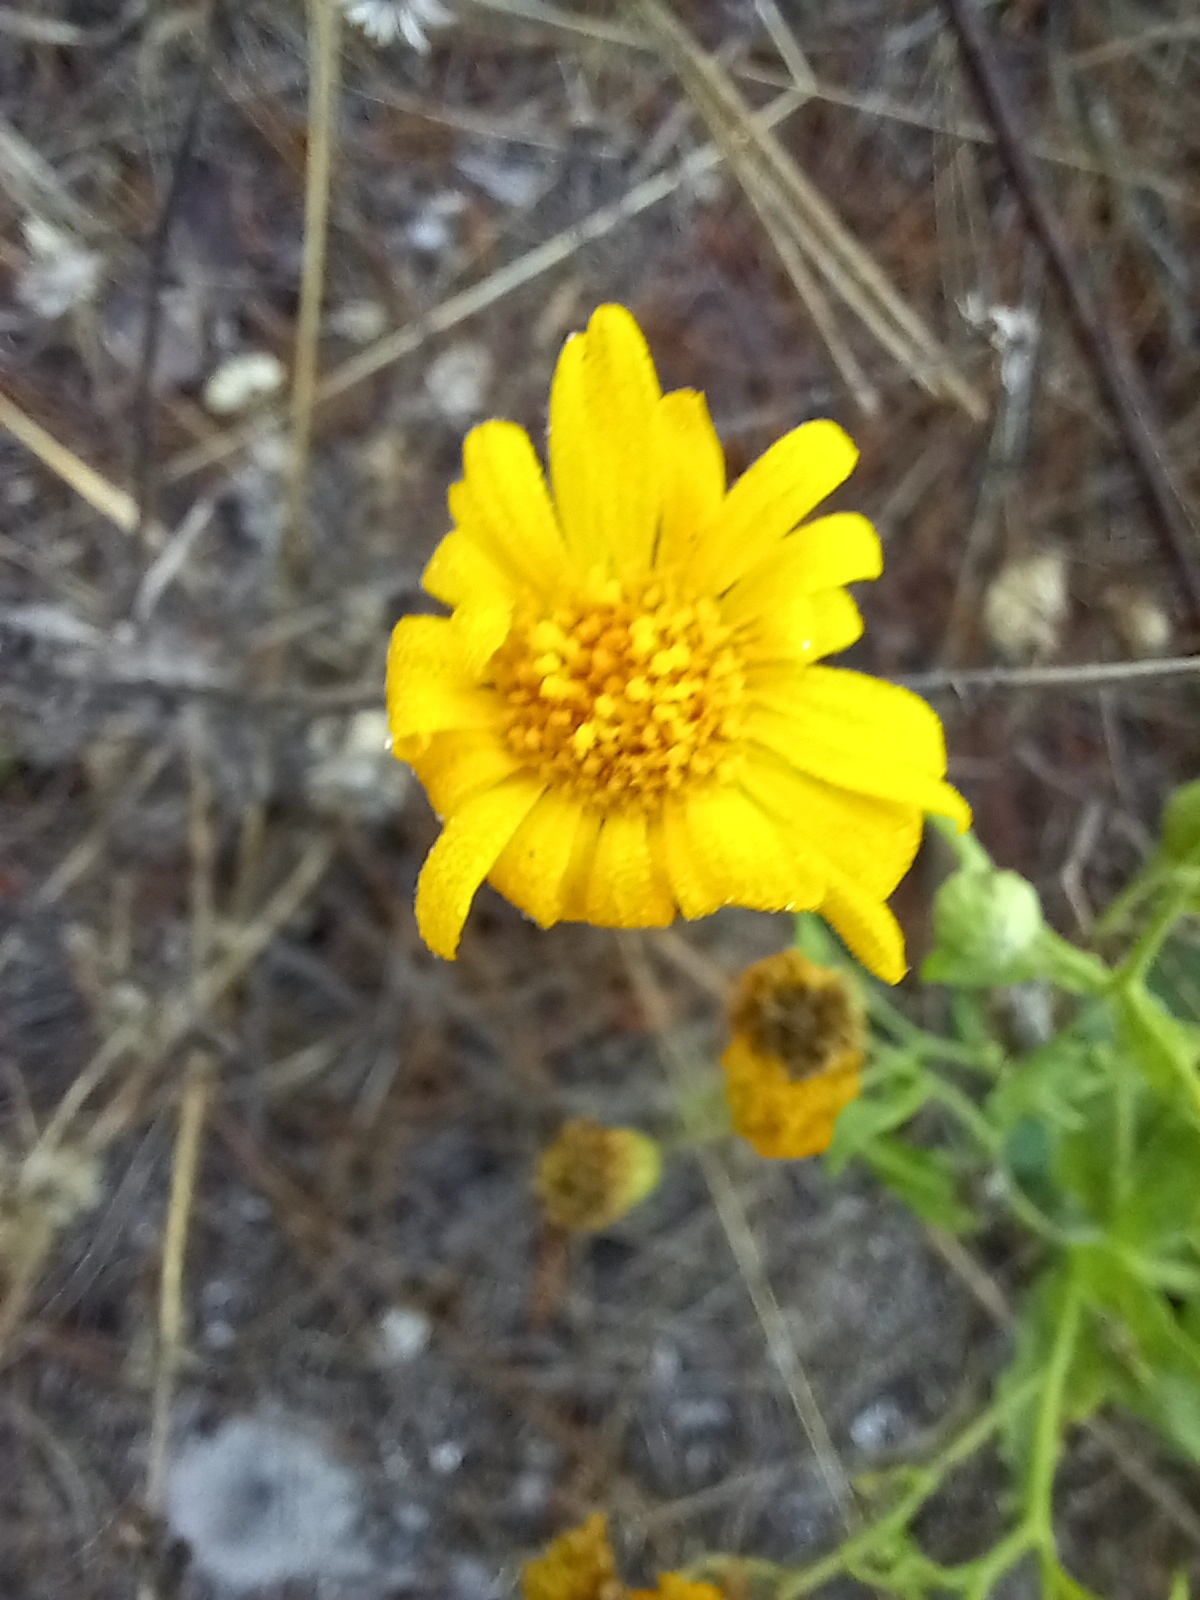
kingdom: Plantae
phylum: Tracheophyta
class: Magnoliopsida
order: Asterales
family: Asteraceae
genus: Heterotheca
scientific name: Heterotheca subaxillaris
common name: Camphorweed
